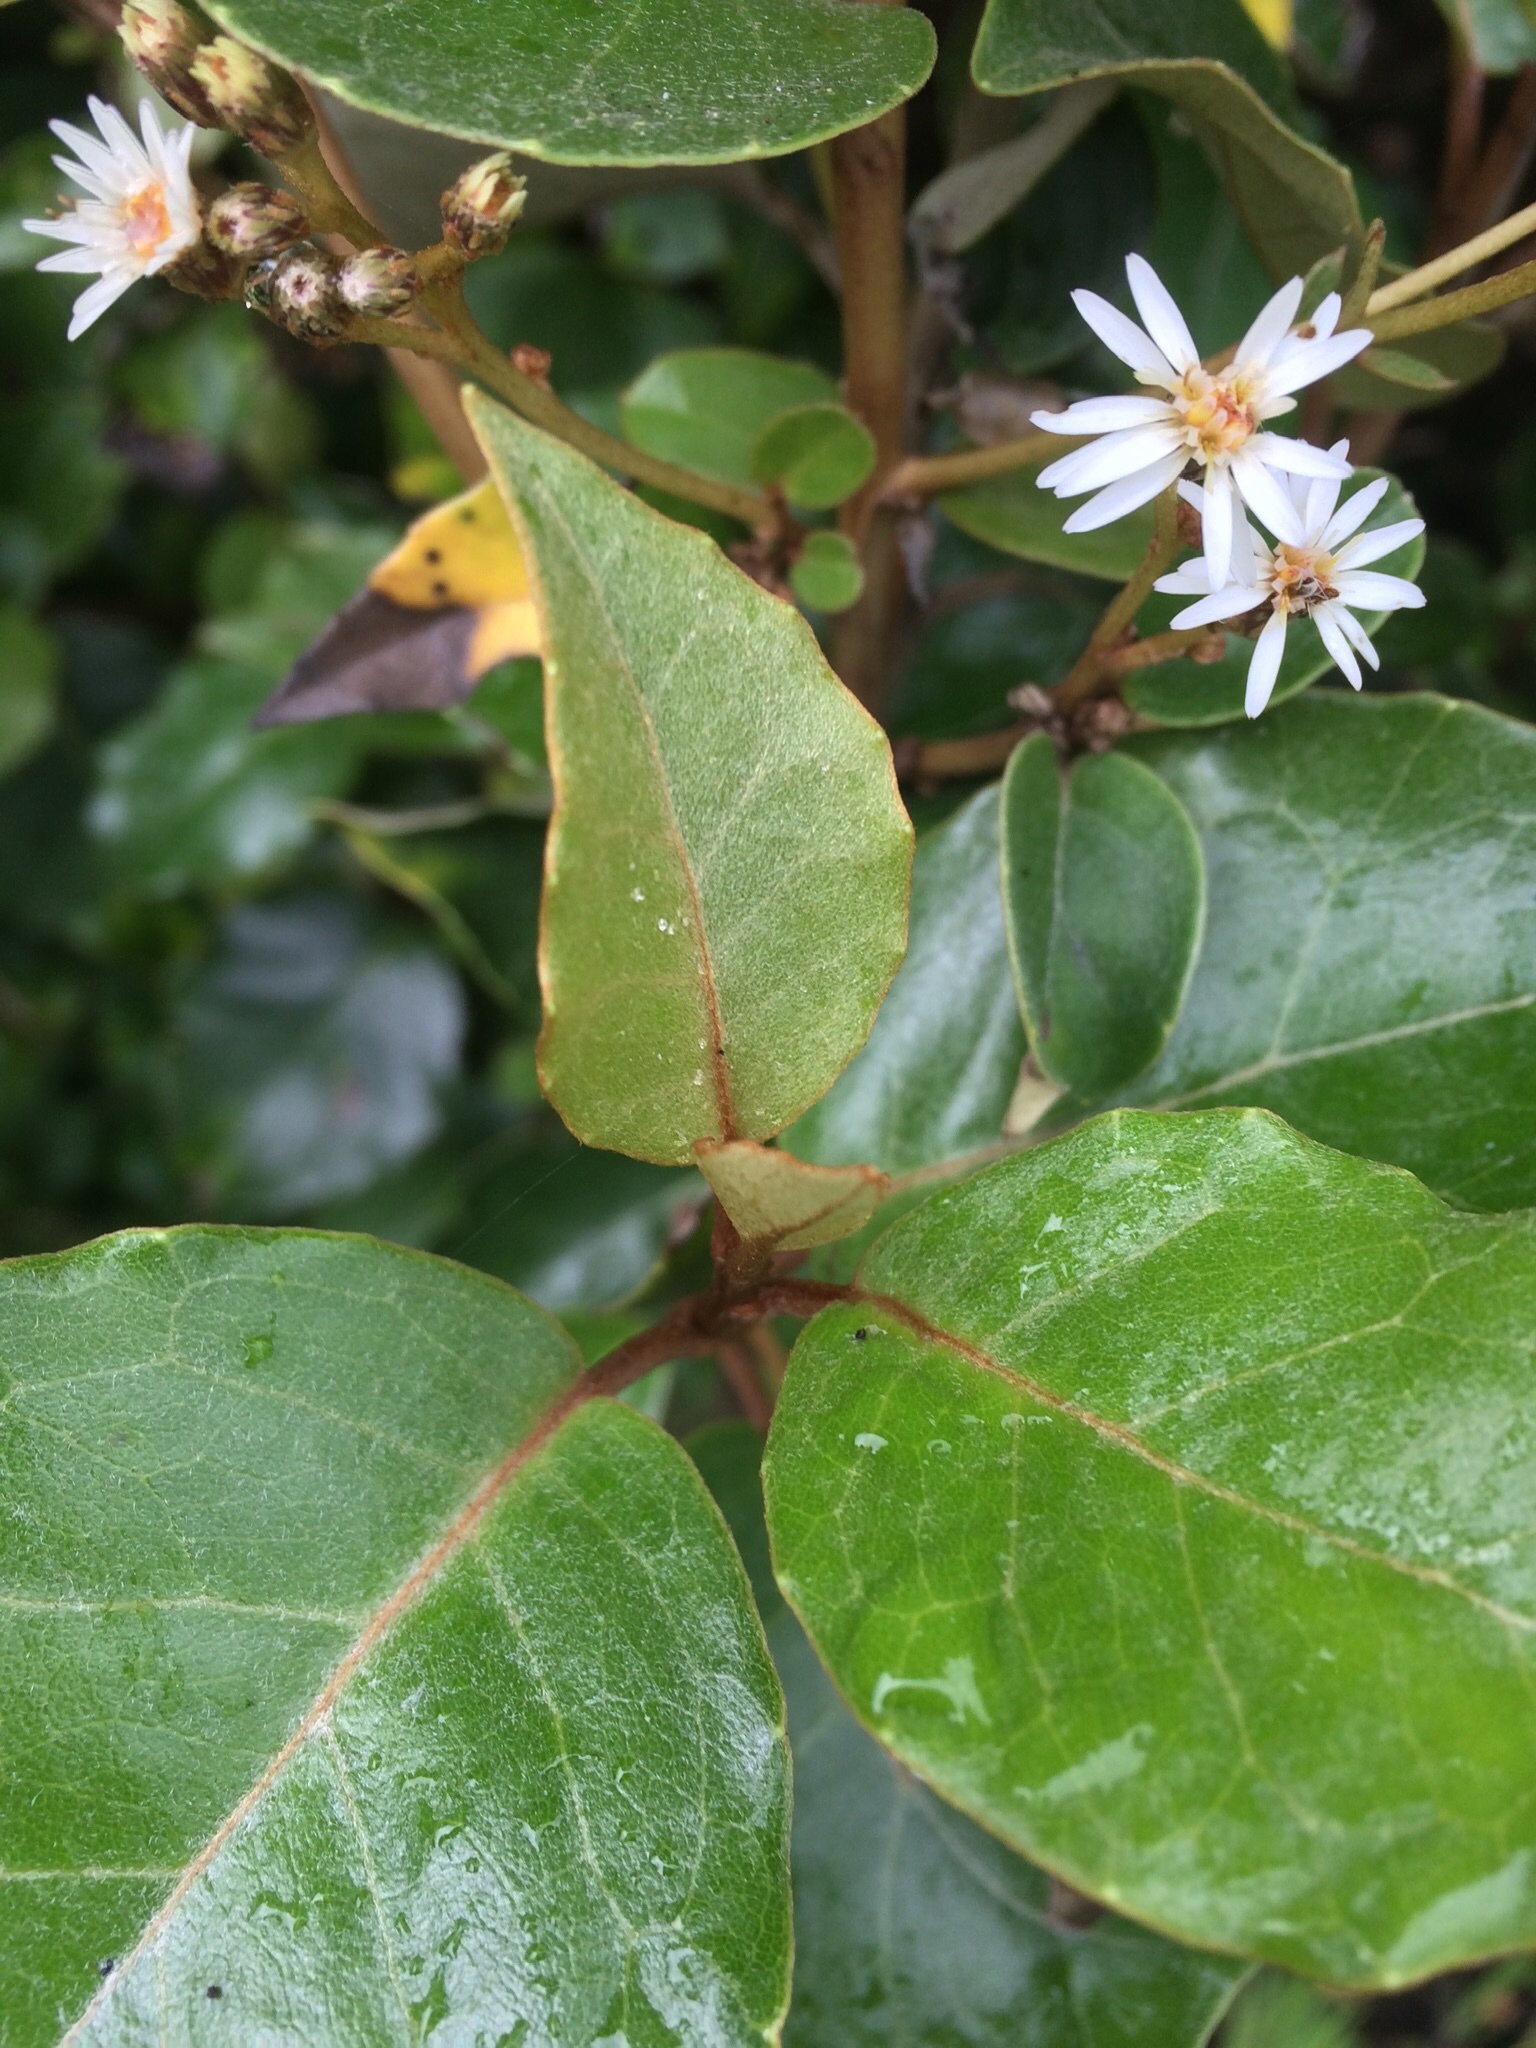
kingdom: Plantae
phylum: Tracheophyta
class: Magnoliopsida
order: Asterales
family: Asteraceae
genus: Olearia
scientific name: Olearia arborescens
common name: Glossy tree daisy
